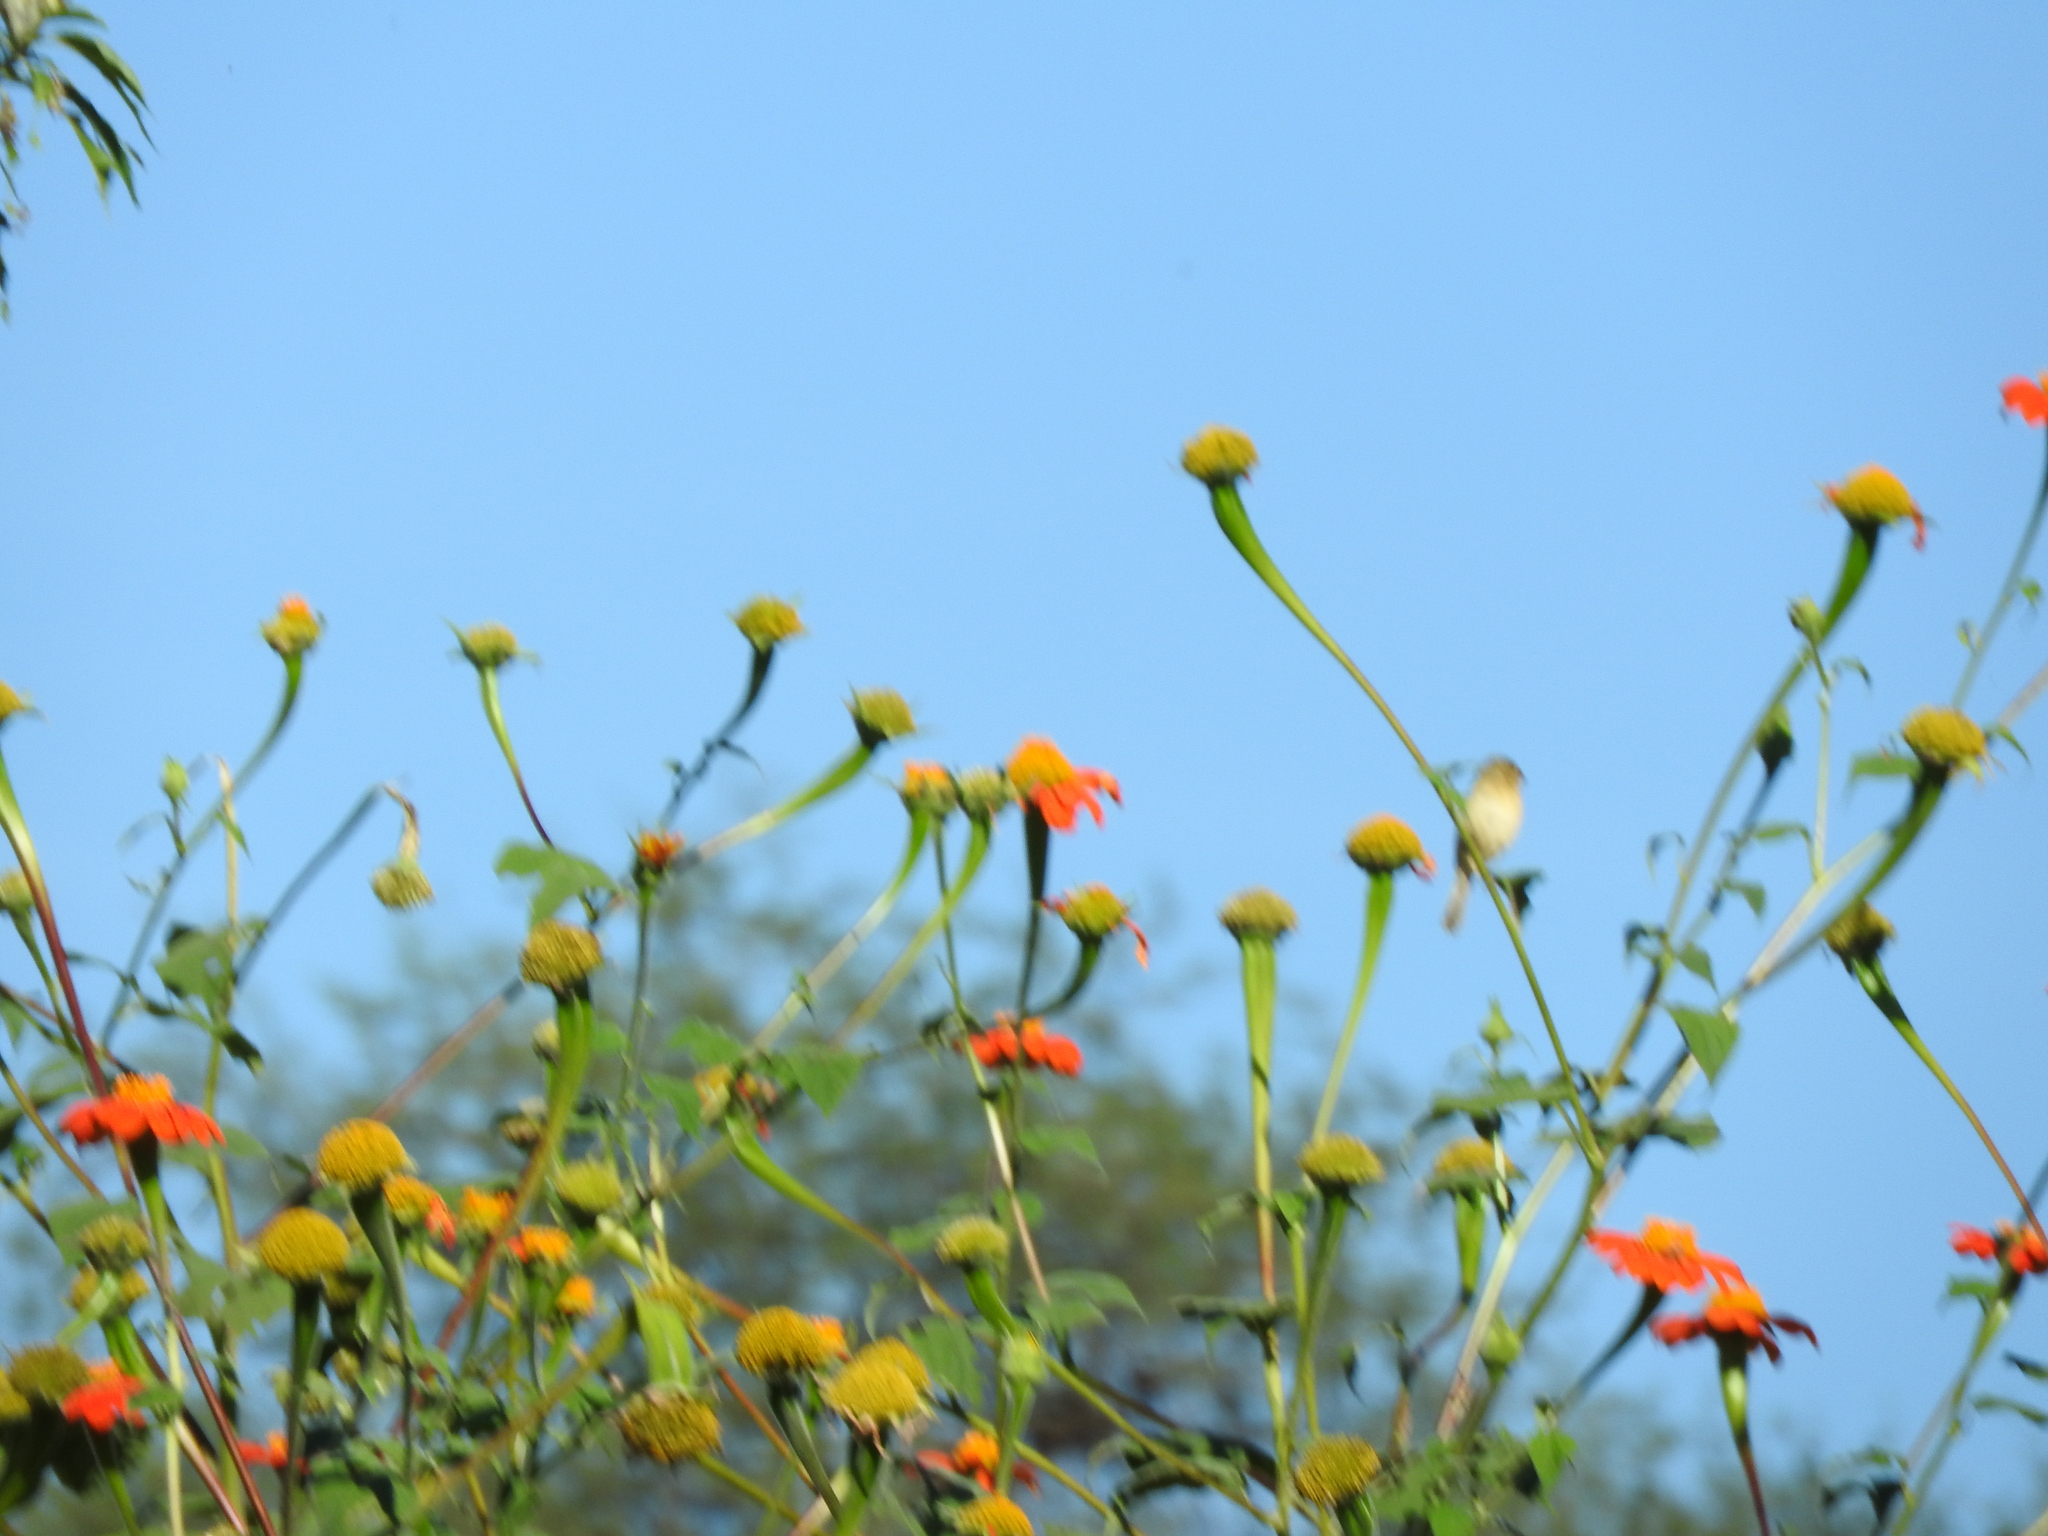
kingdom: Plantae
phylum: Tracheophyta
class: Magnoliopsida
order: Asterales
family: Asteraceae
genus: Tithonia
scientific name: Tithonia rotundifolia
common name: Sunflower
